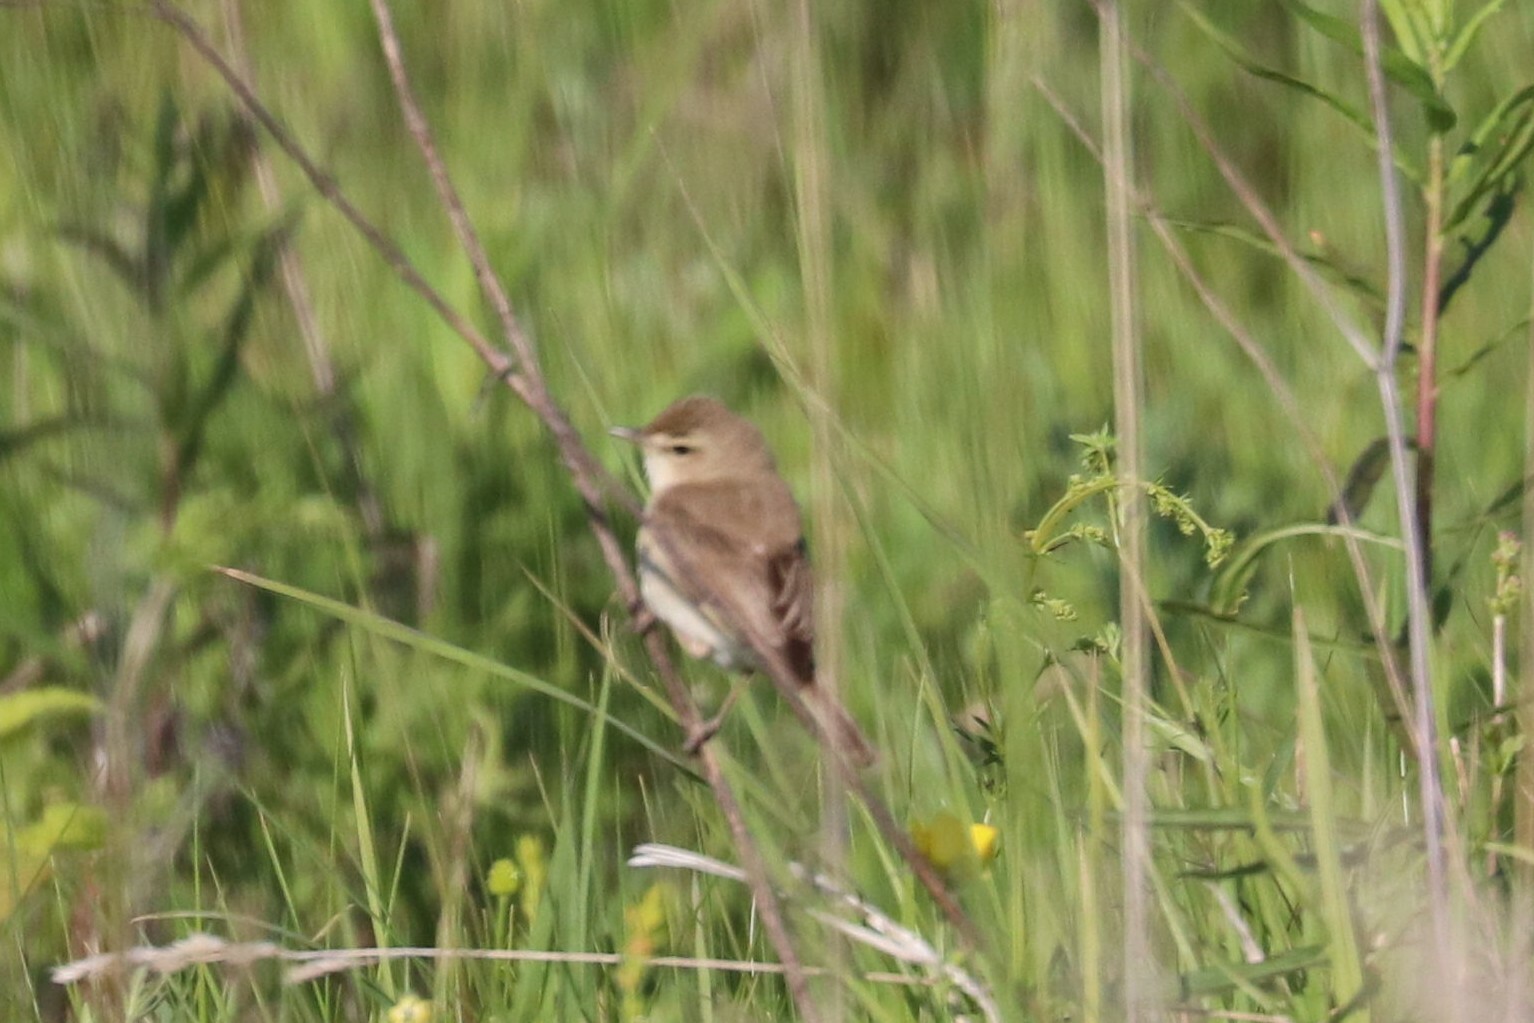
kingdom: Animalia
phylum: Chordata
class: Aves
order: Passeriformes
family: Acrocephalidae
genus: Iduna
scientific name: Iduna caligata
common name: Booted warbler
